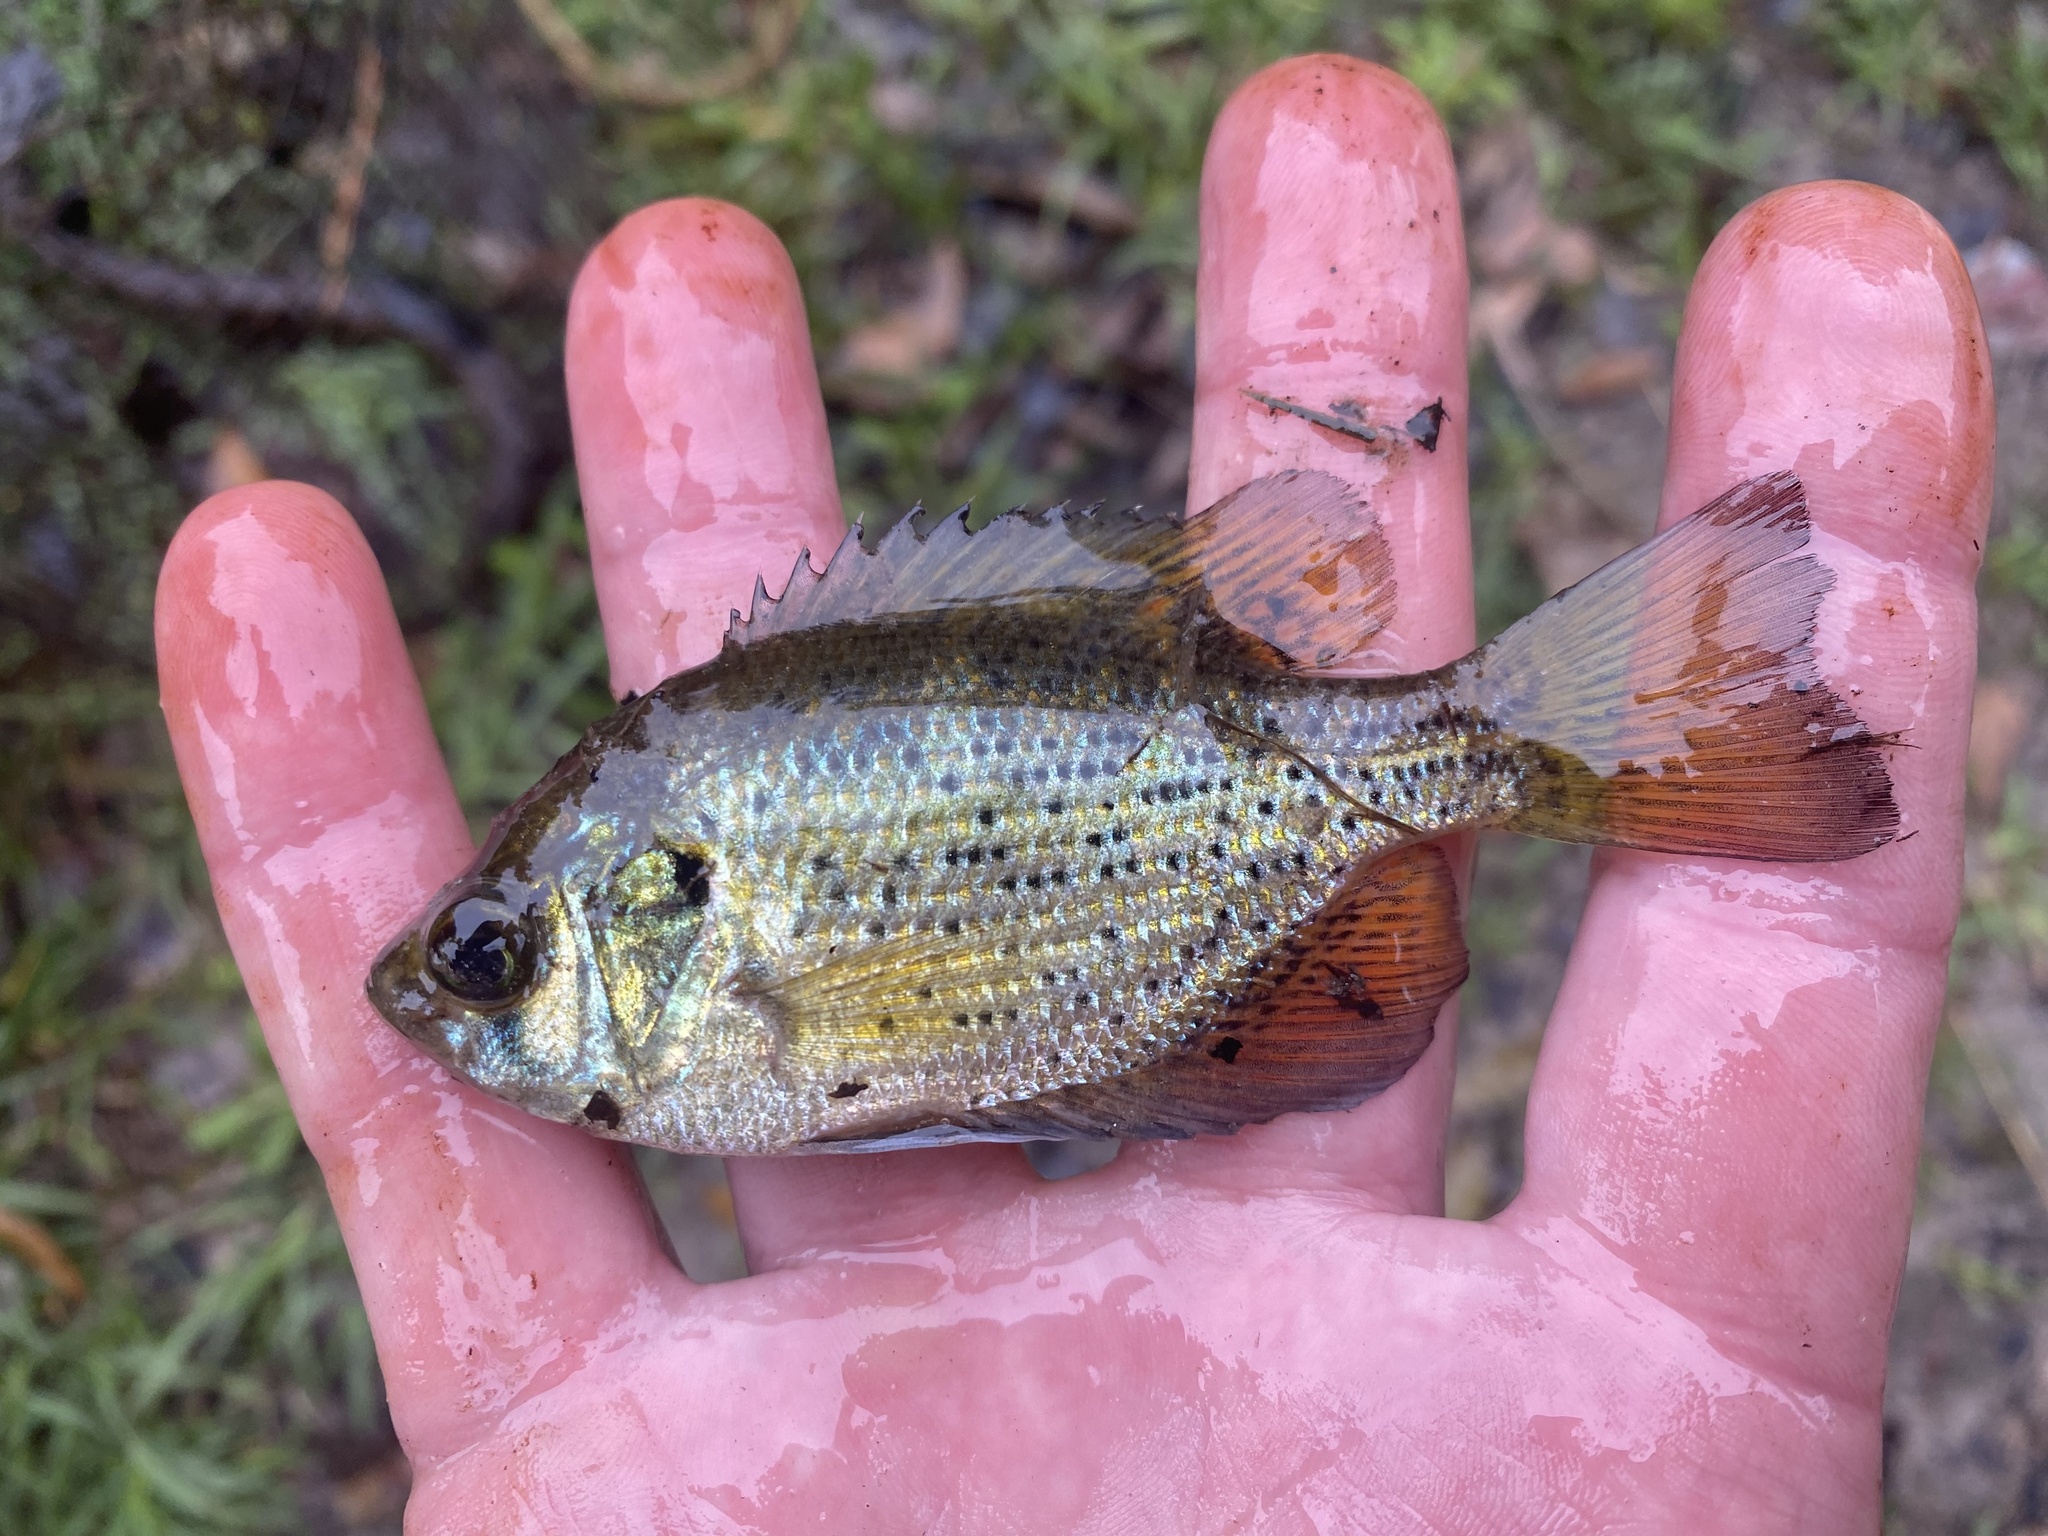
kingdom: Animalia
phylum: Chordata
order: Perciformes
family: Centrarchidae
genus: Centrarchus
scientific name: Centrarchus macropterus
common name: Flier
